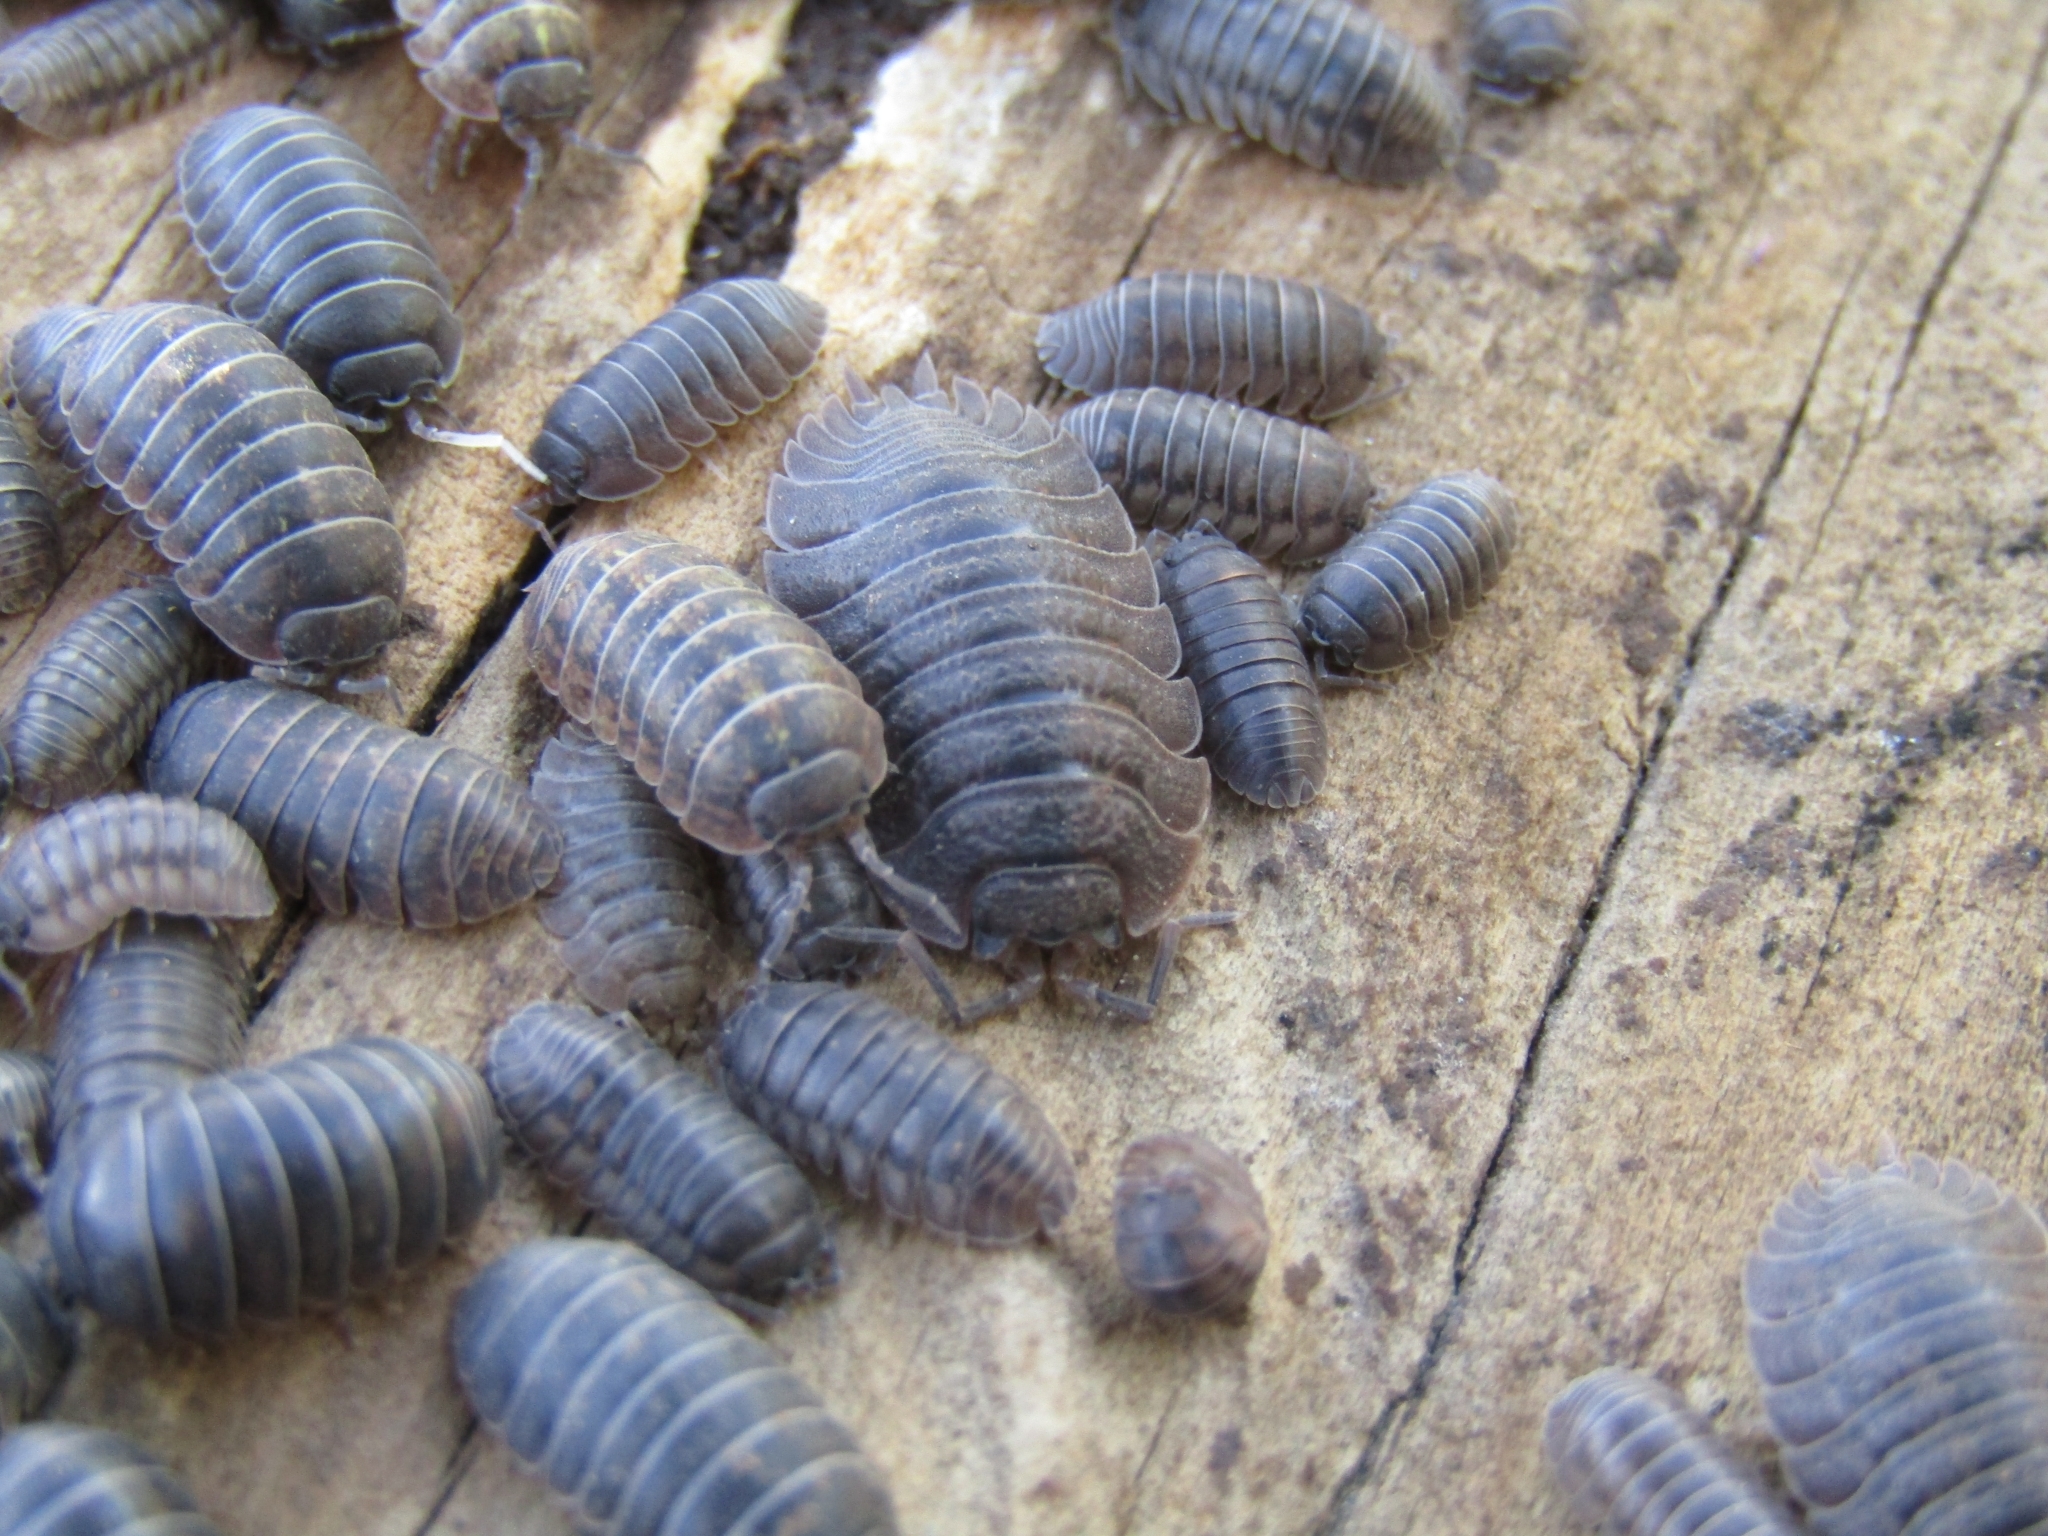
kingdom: Animalia
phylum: Arthropoda
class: Malacostraca
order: Isopoda
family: Armadillidiidae
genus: Armadillidium
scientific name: Armadillidium vulgare
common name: Common pill woodlouse
